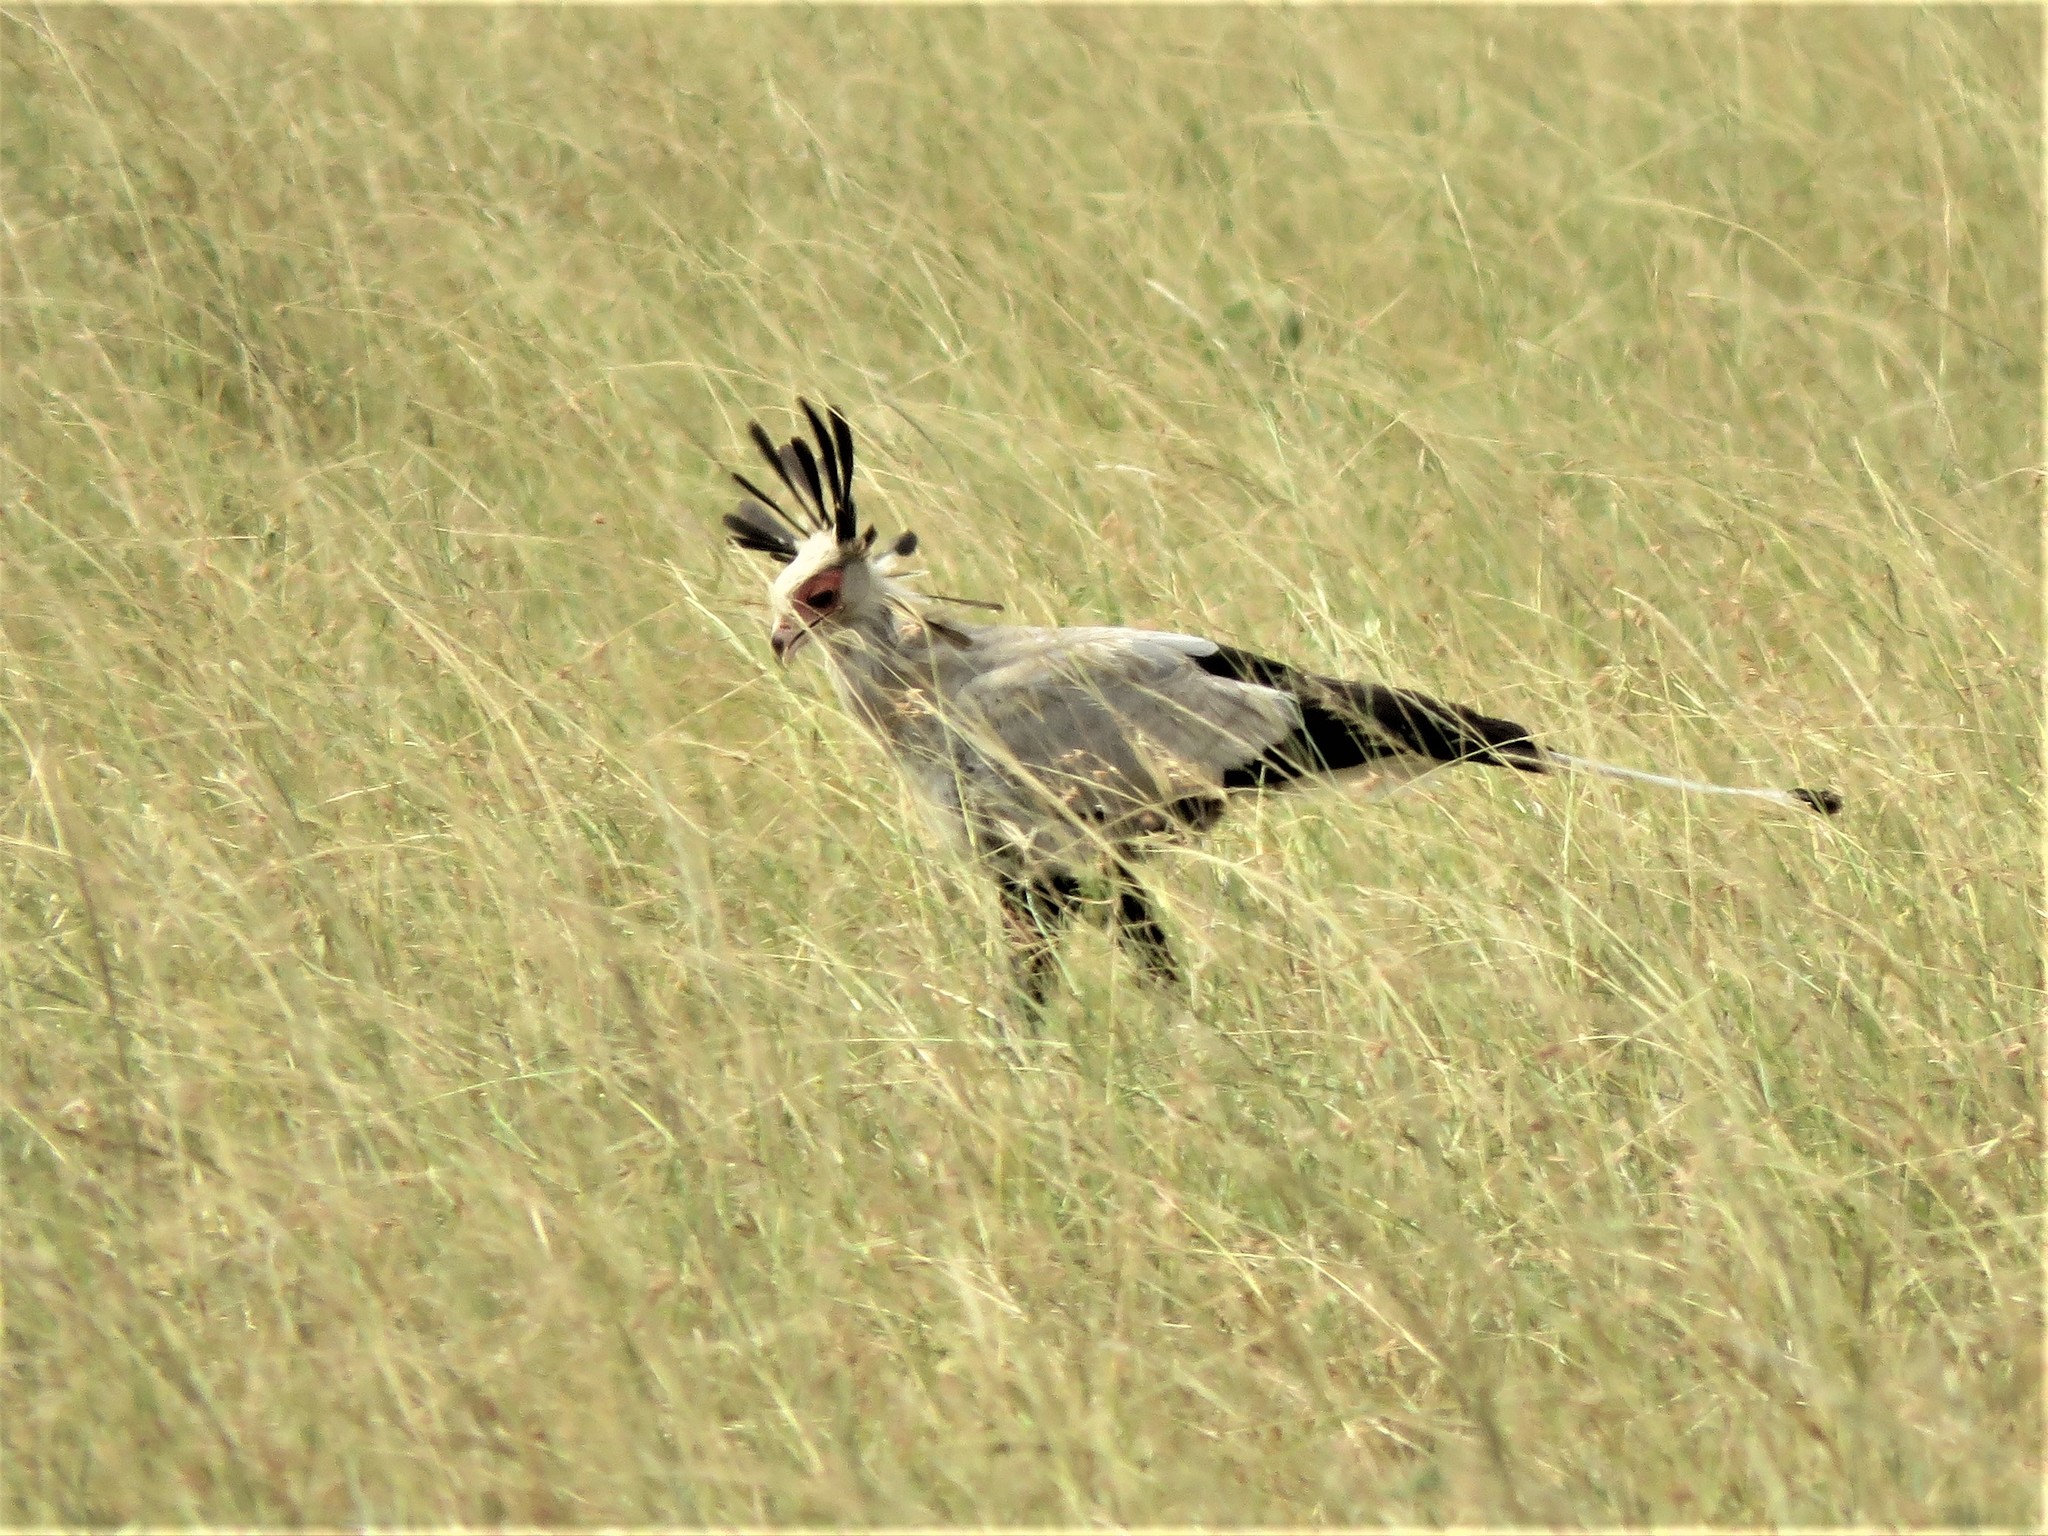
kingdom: Animalia
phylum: Chordata
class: Aves
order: Accipitriformes
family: Sagittariidae
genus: Sagittarius
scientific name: Sagittarius serpentarius
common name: Secretarybird
